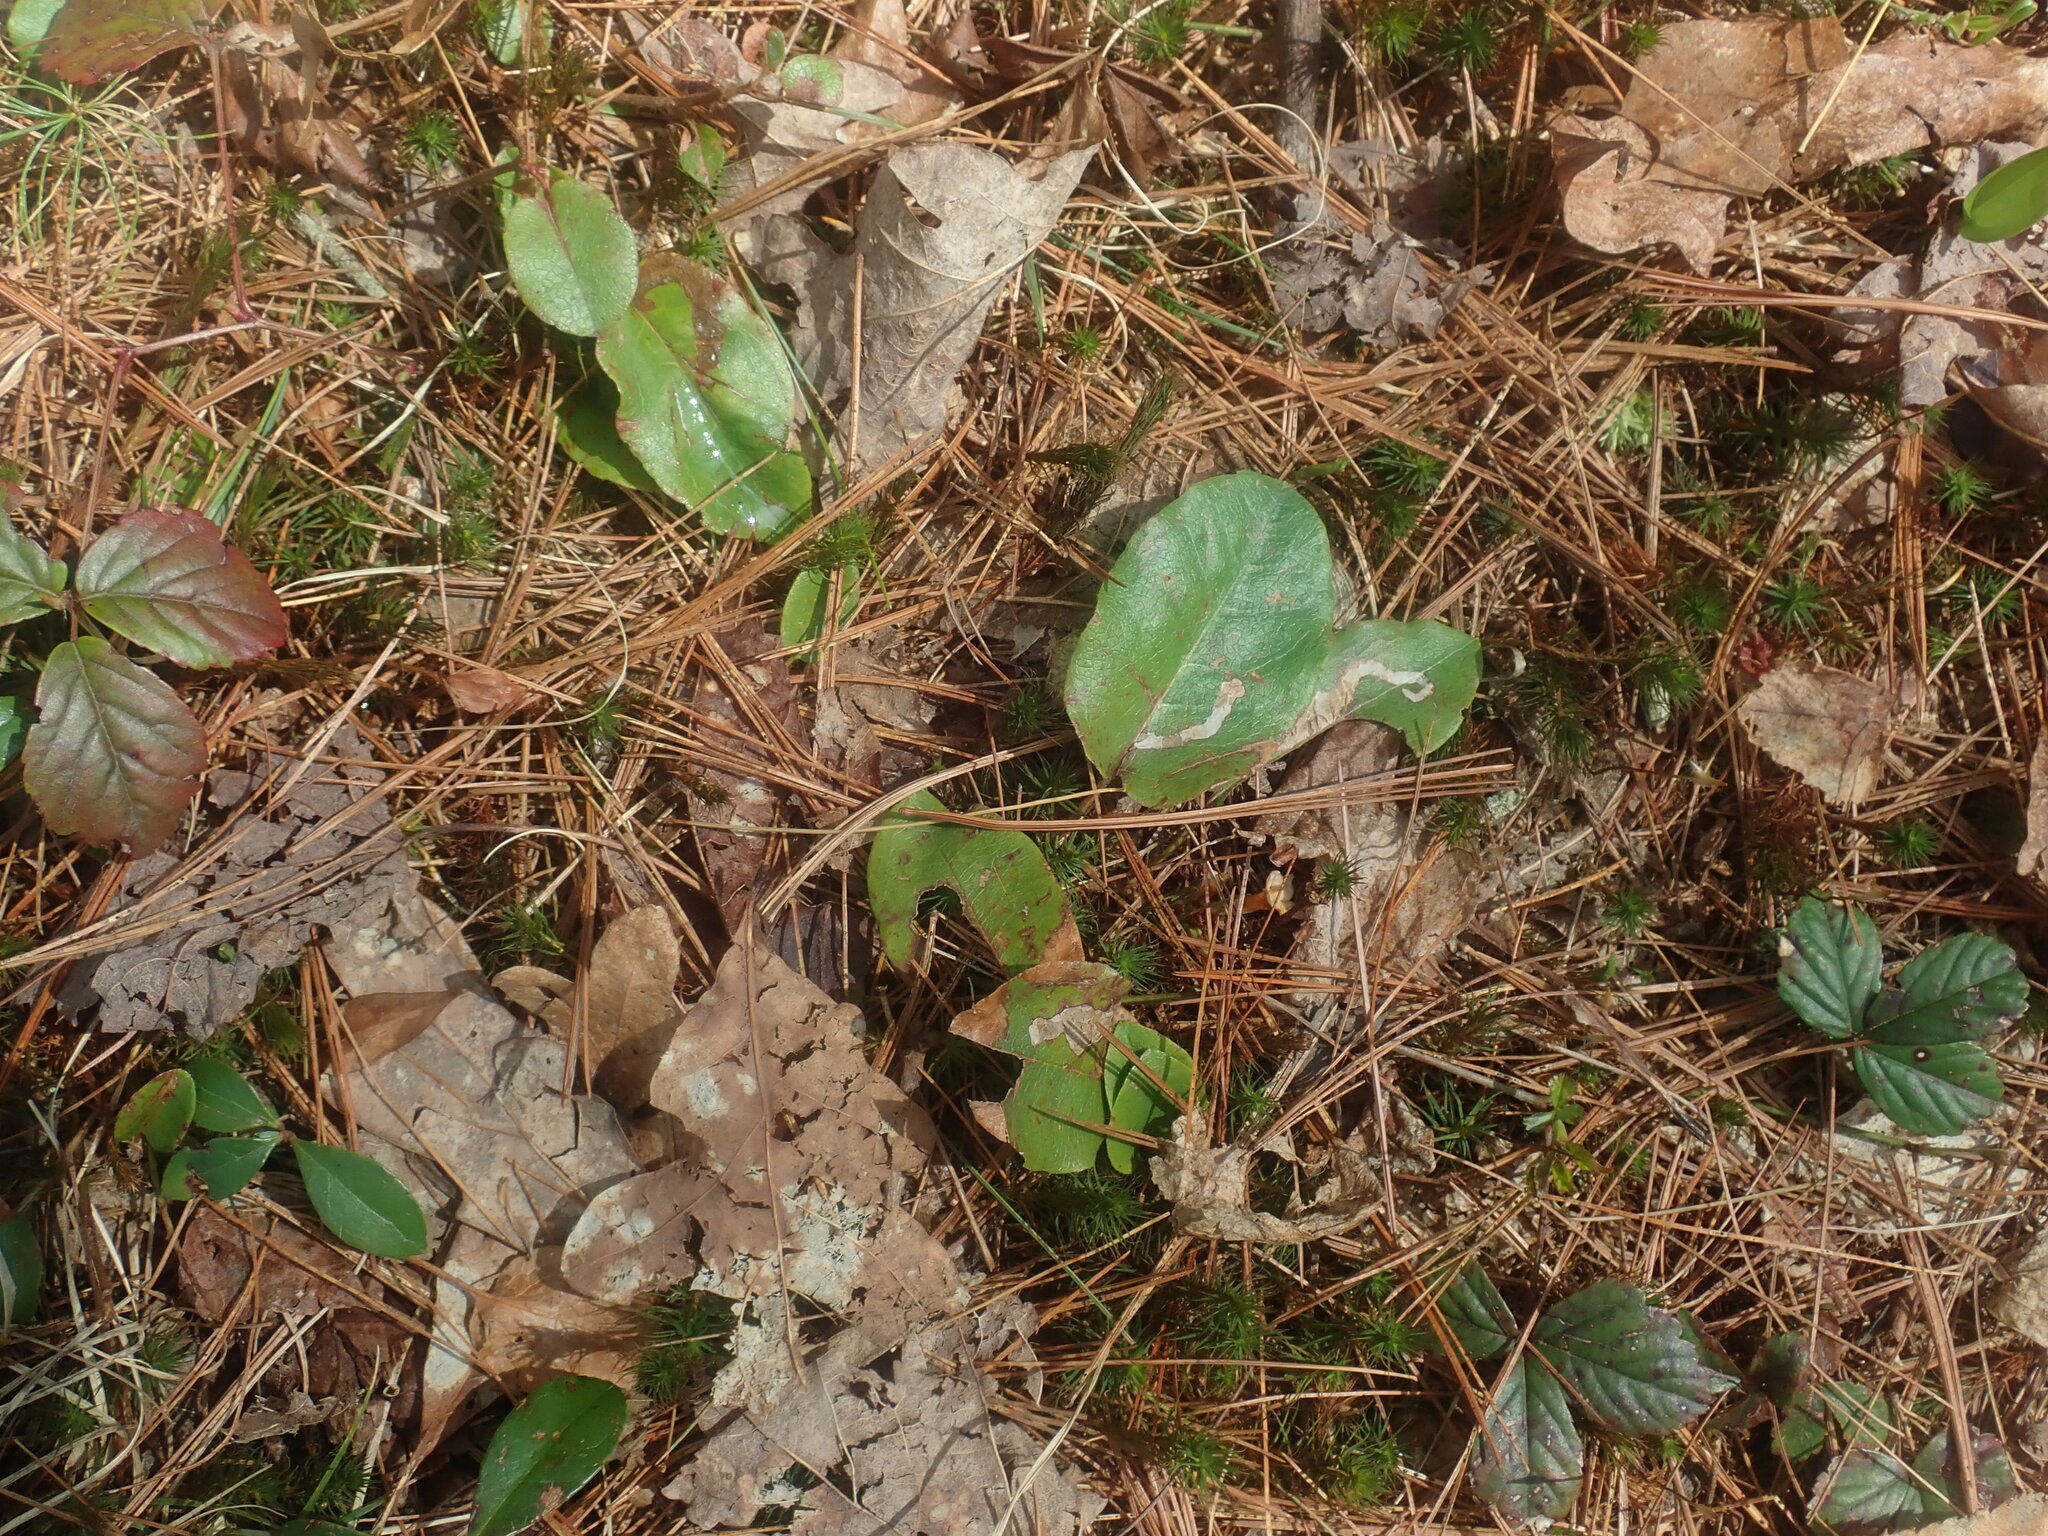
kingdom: Plantae
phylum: Tracheophyta
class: Magnoliopsida
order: Ericales
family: Ericaceae
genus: Epigaea
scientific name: Epigaea repens
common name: Gravelroot
